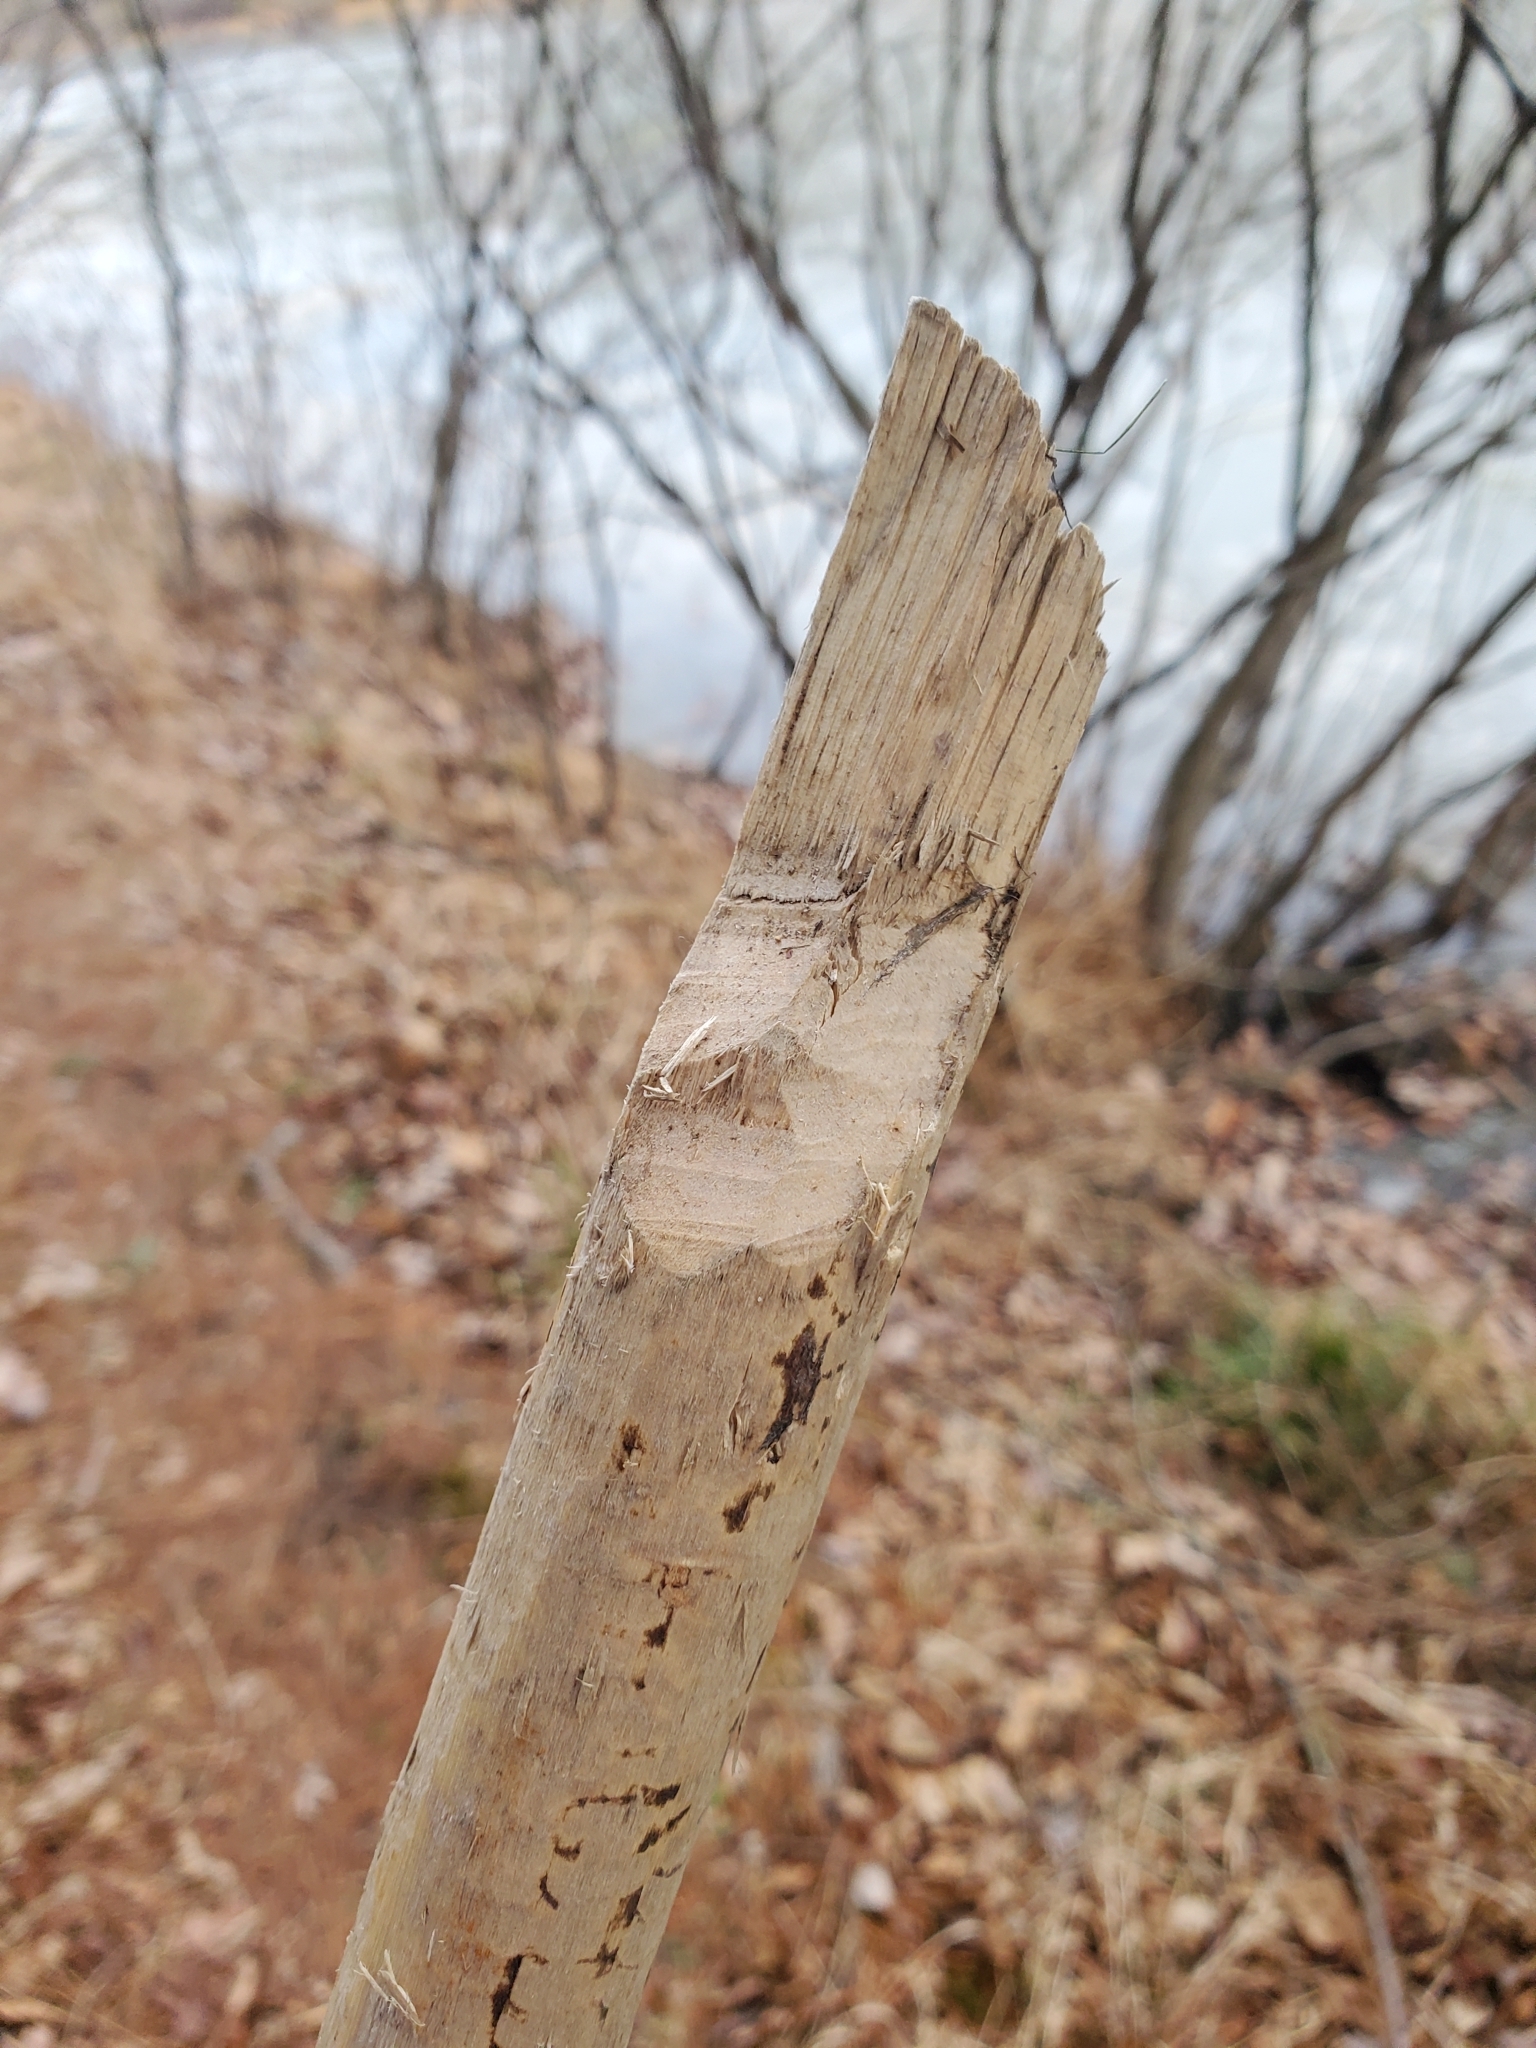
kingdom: Animalia
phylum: Chordata
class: Mammalia
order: Rodentia
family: Castoridae
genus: Castor
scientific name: Castor canadensis
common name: American beaver
